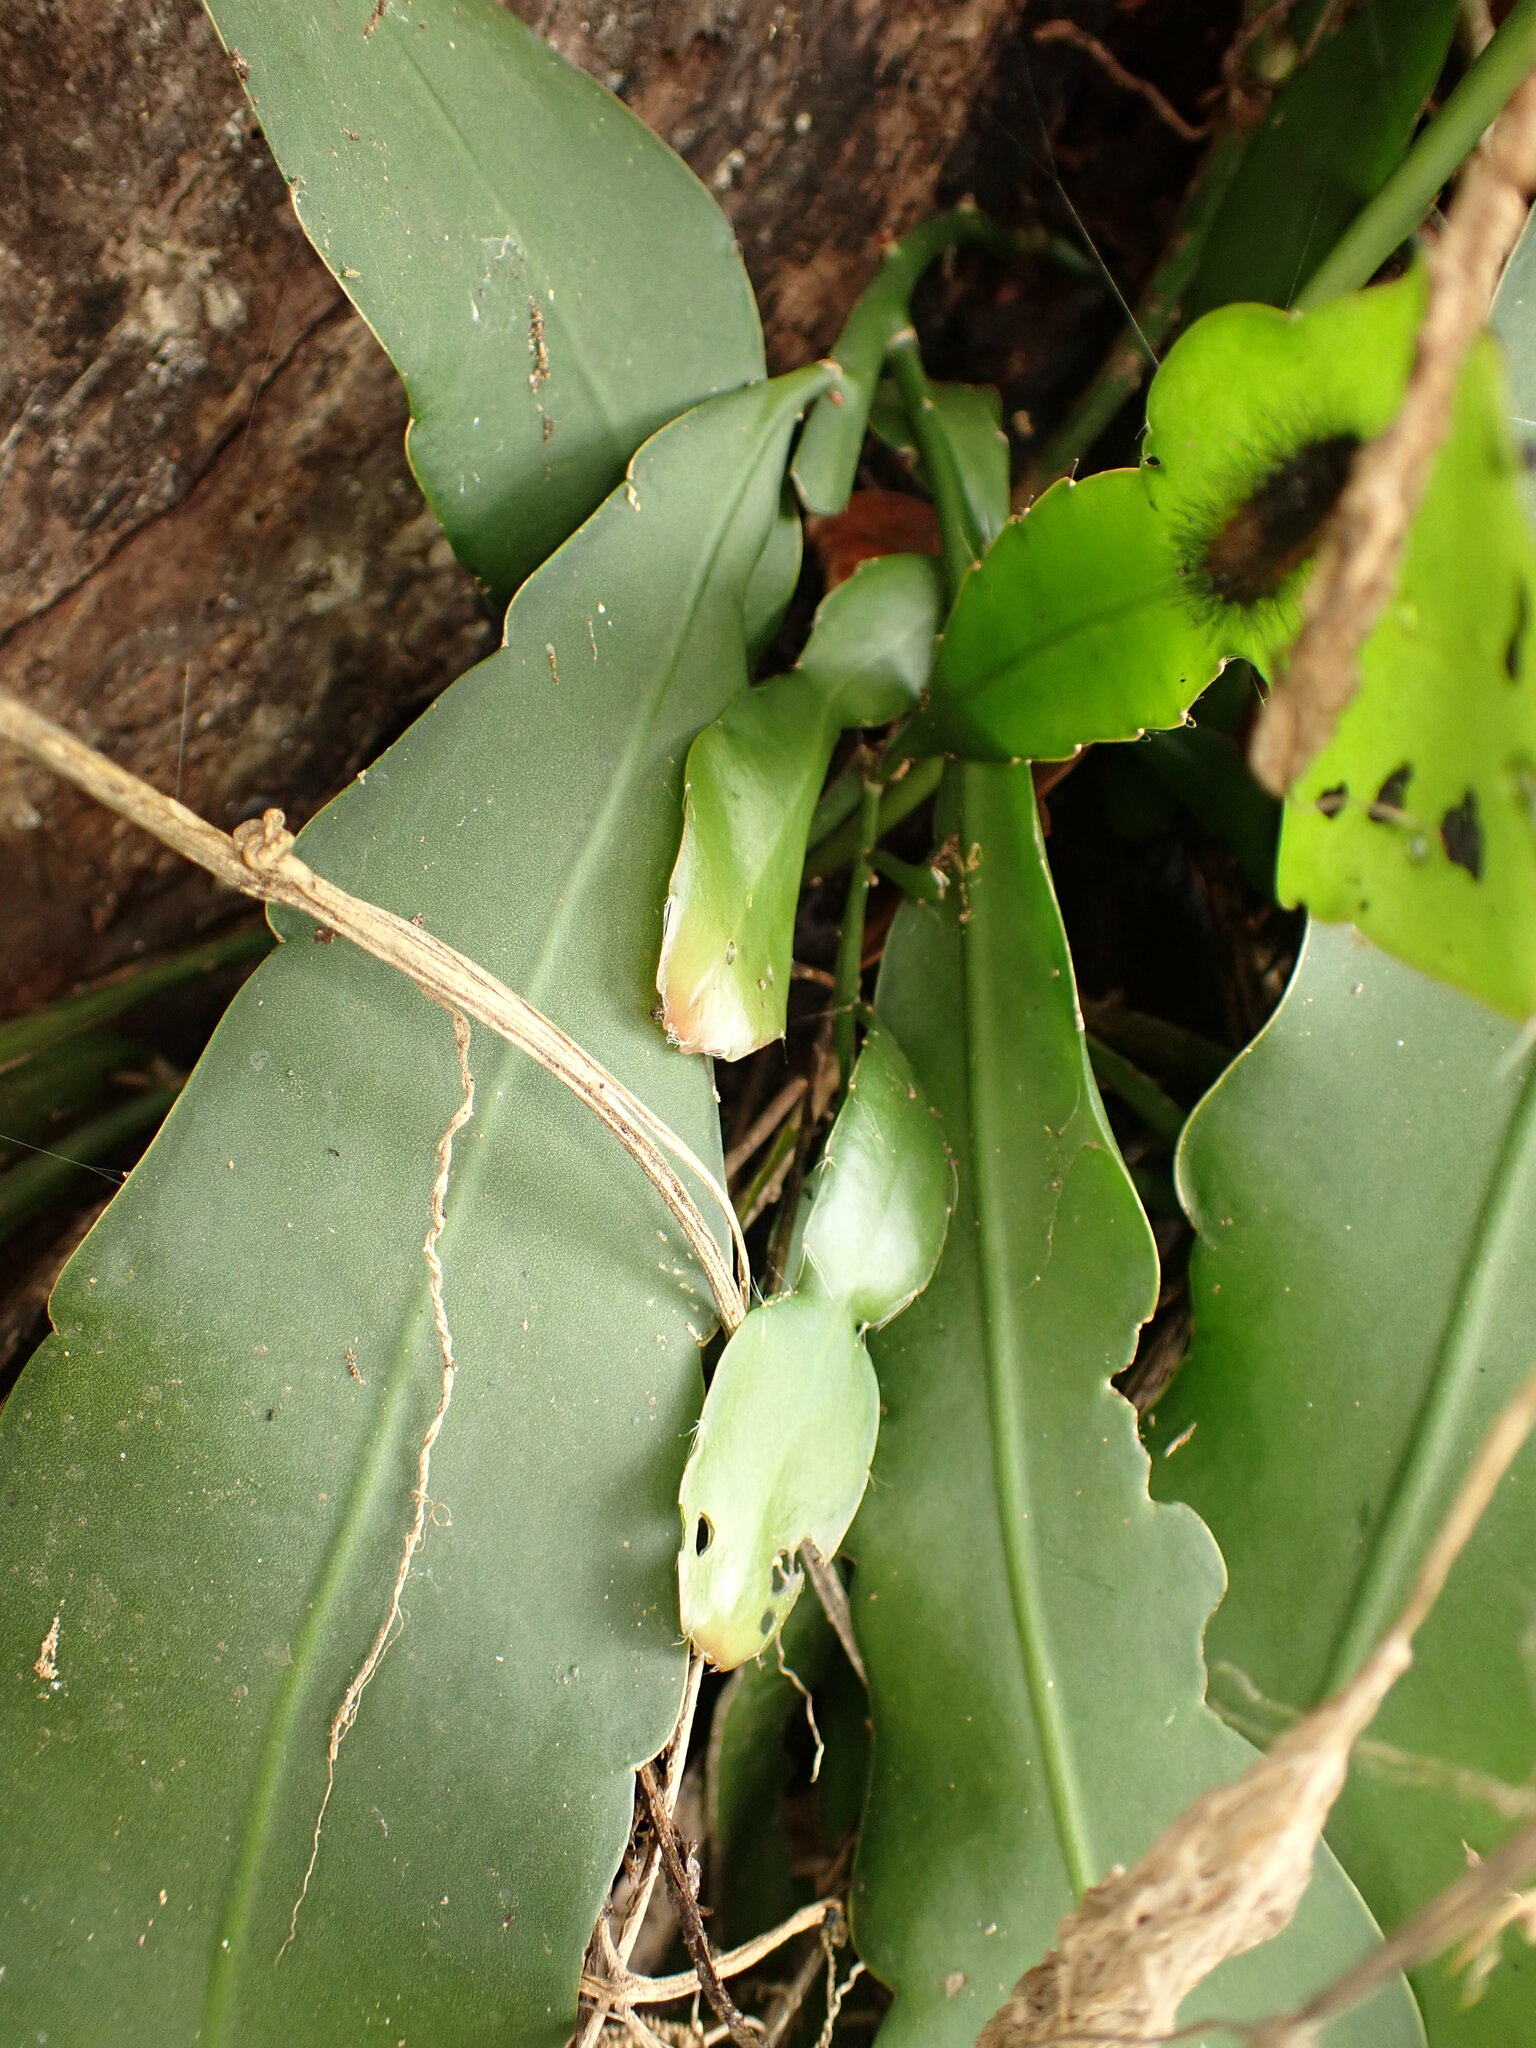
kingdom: Plantae
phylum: Tracheophyta
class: Magnoliopsida
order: Caryophyllales
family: Cactaceae
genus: Epiphyllum
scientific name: Epiphyllum phyllanthus
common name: Climbing cactus
